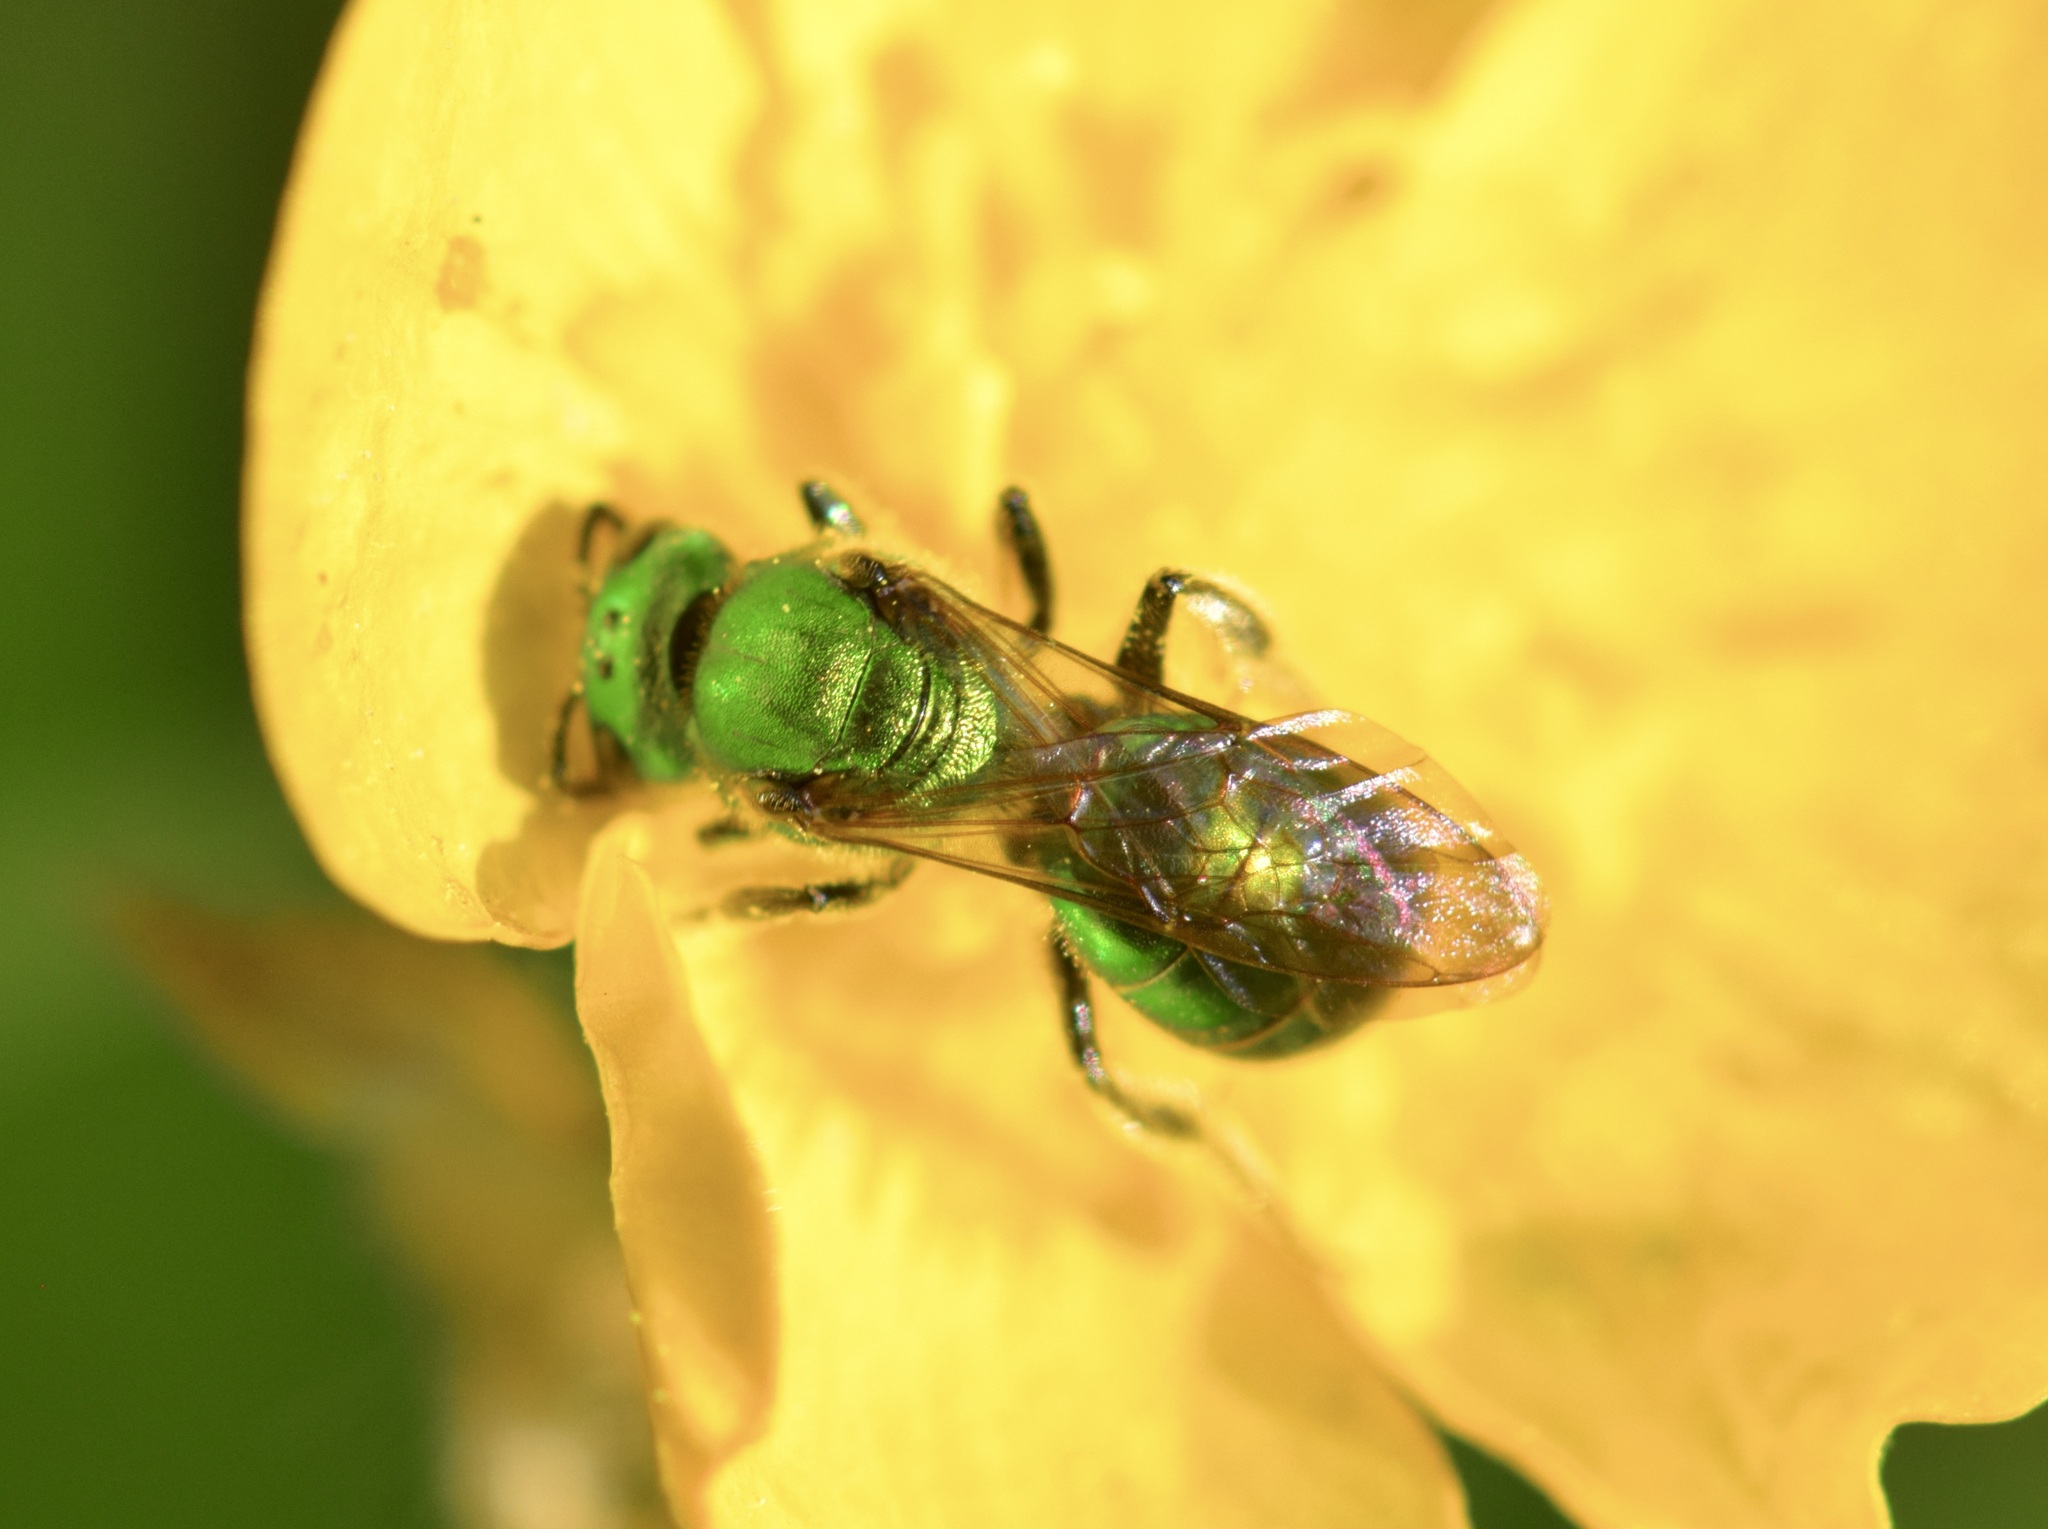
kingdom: Animalia
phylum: Arthropoda
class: Insecta
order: Hymenoptera
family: Halictidae
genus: Augochlora
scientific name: Augochlora pura
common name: Pure green sweat bee
